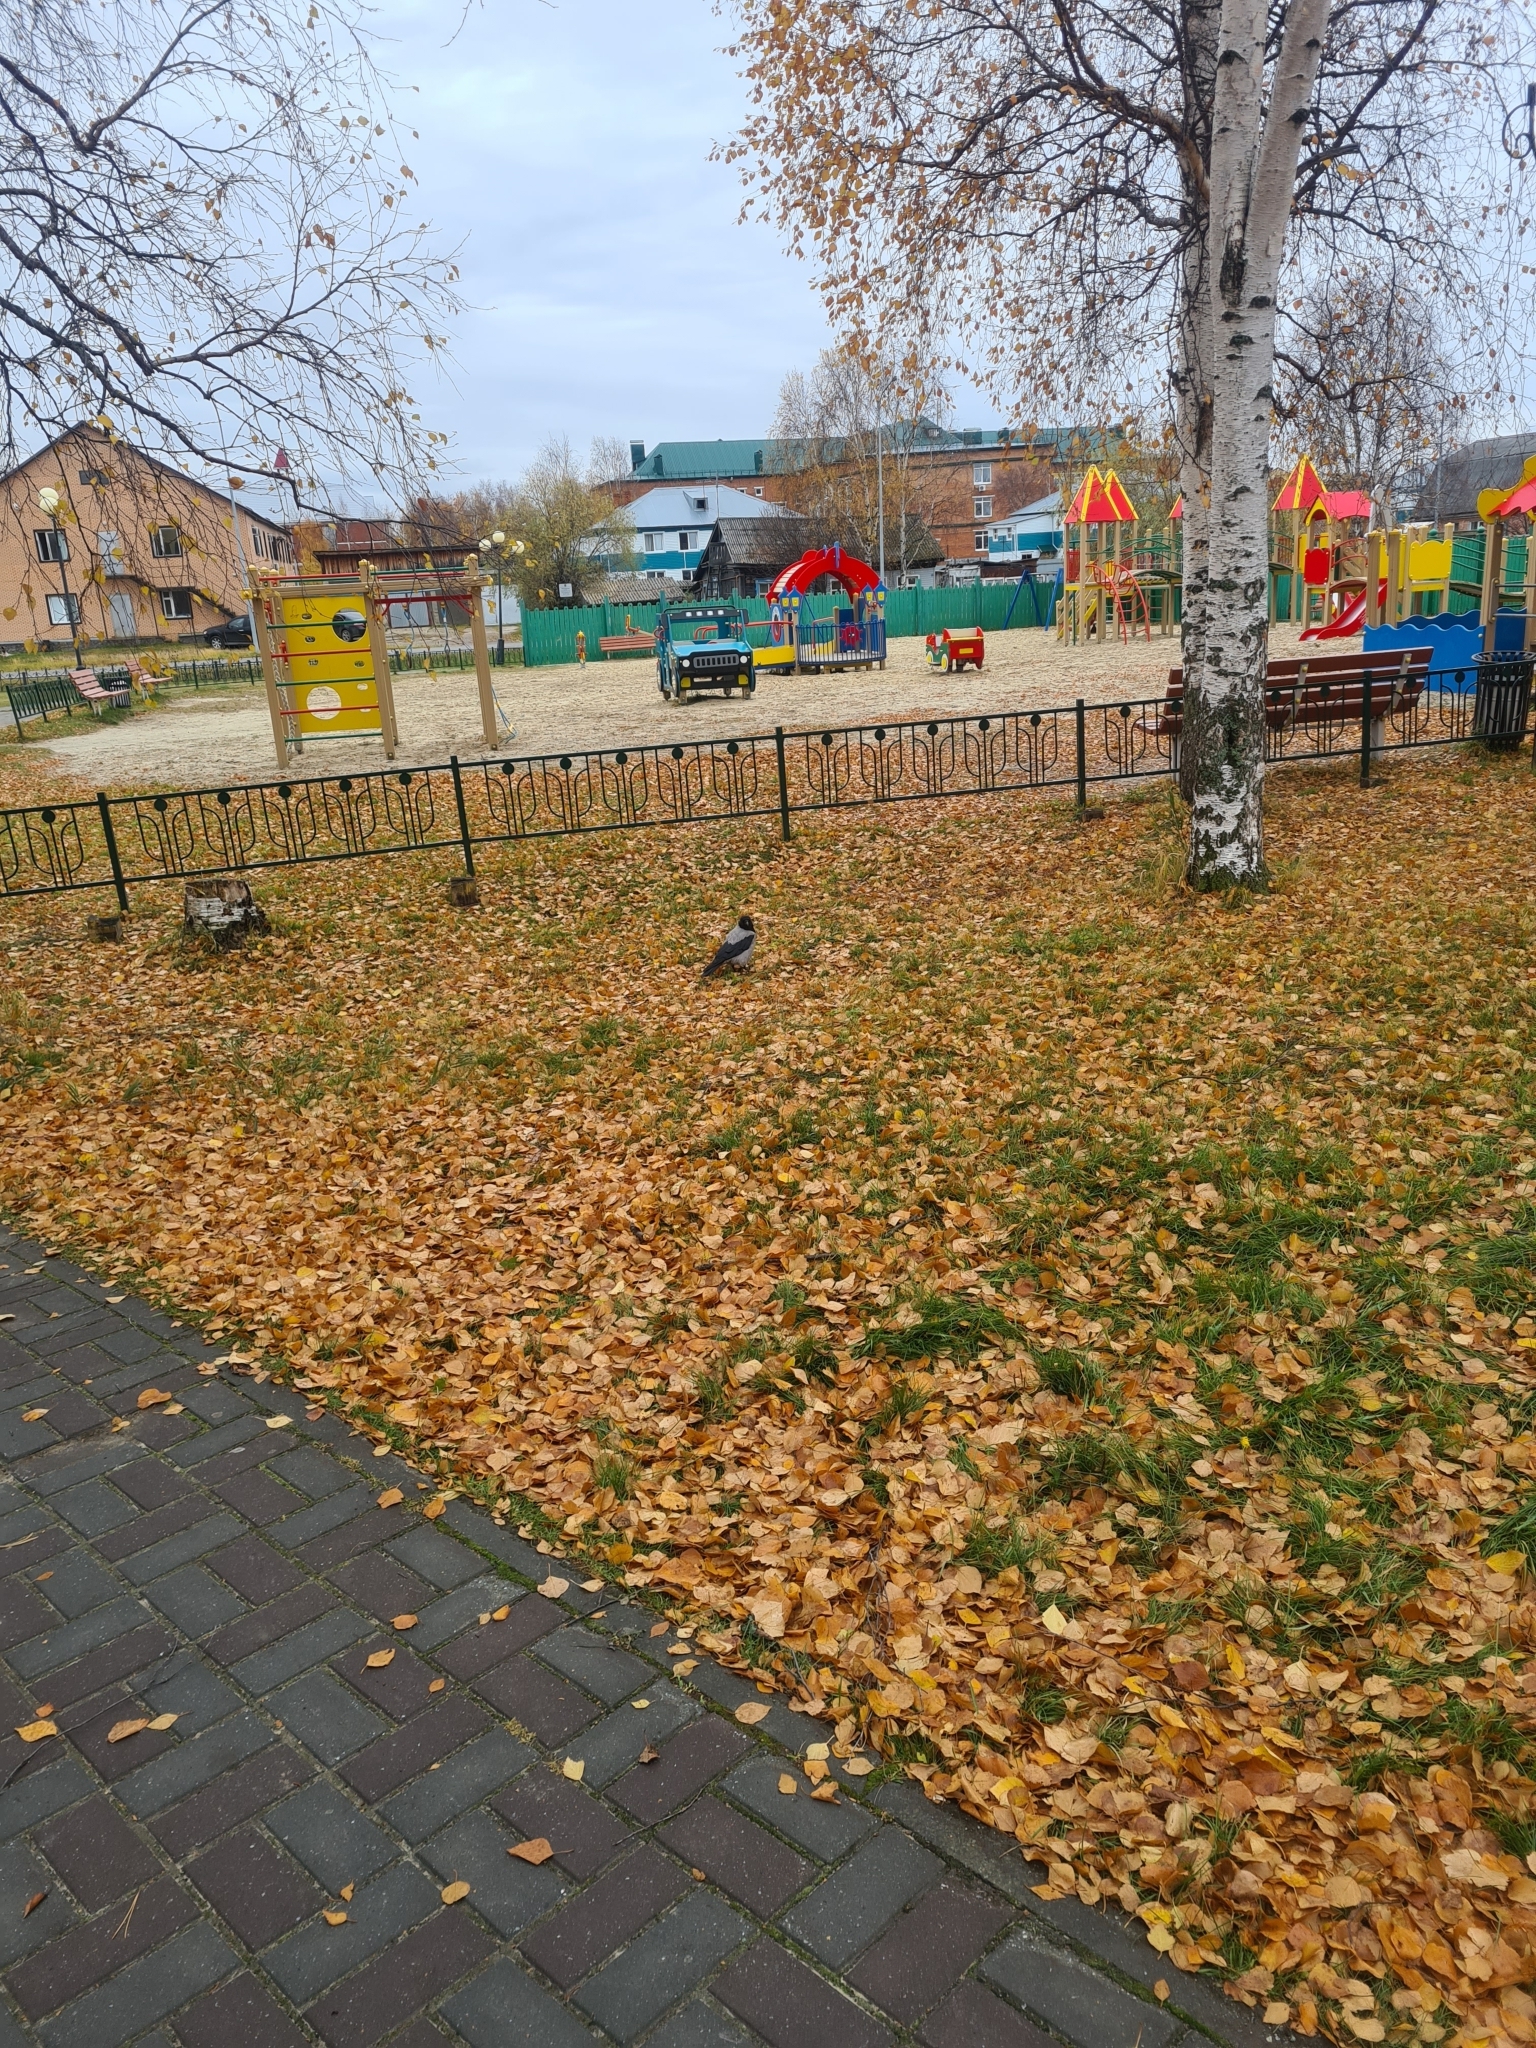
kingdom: Animalia
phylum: Chordata
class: Aves
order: Passeriformes
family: Corvidae
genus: Corvus
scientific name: Corvus cornix
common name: Hooded crow
